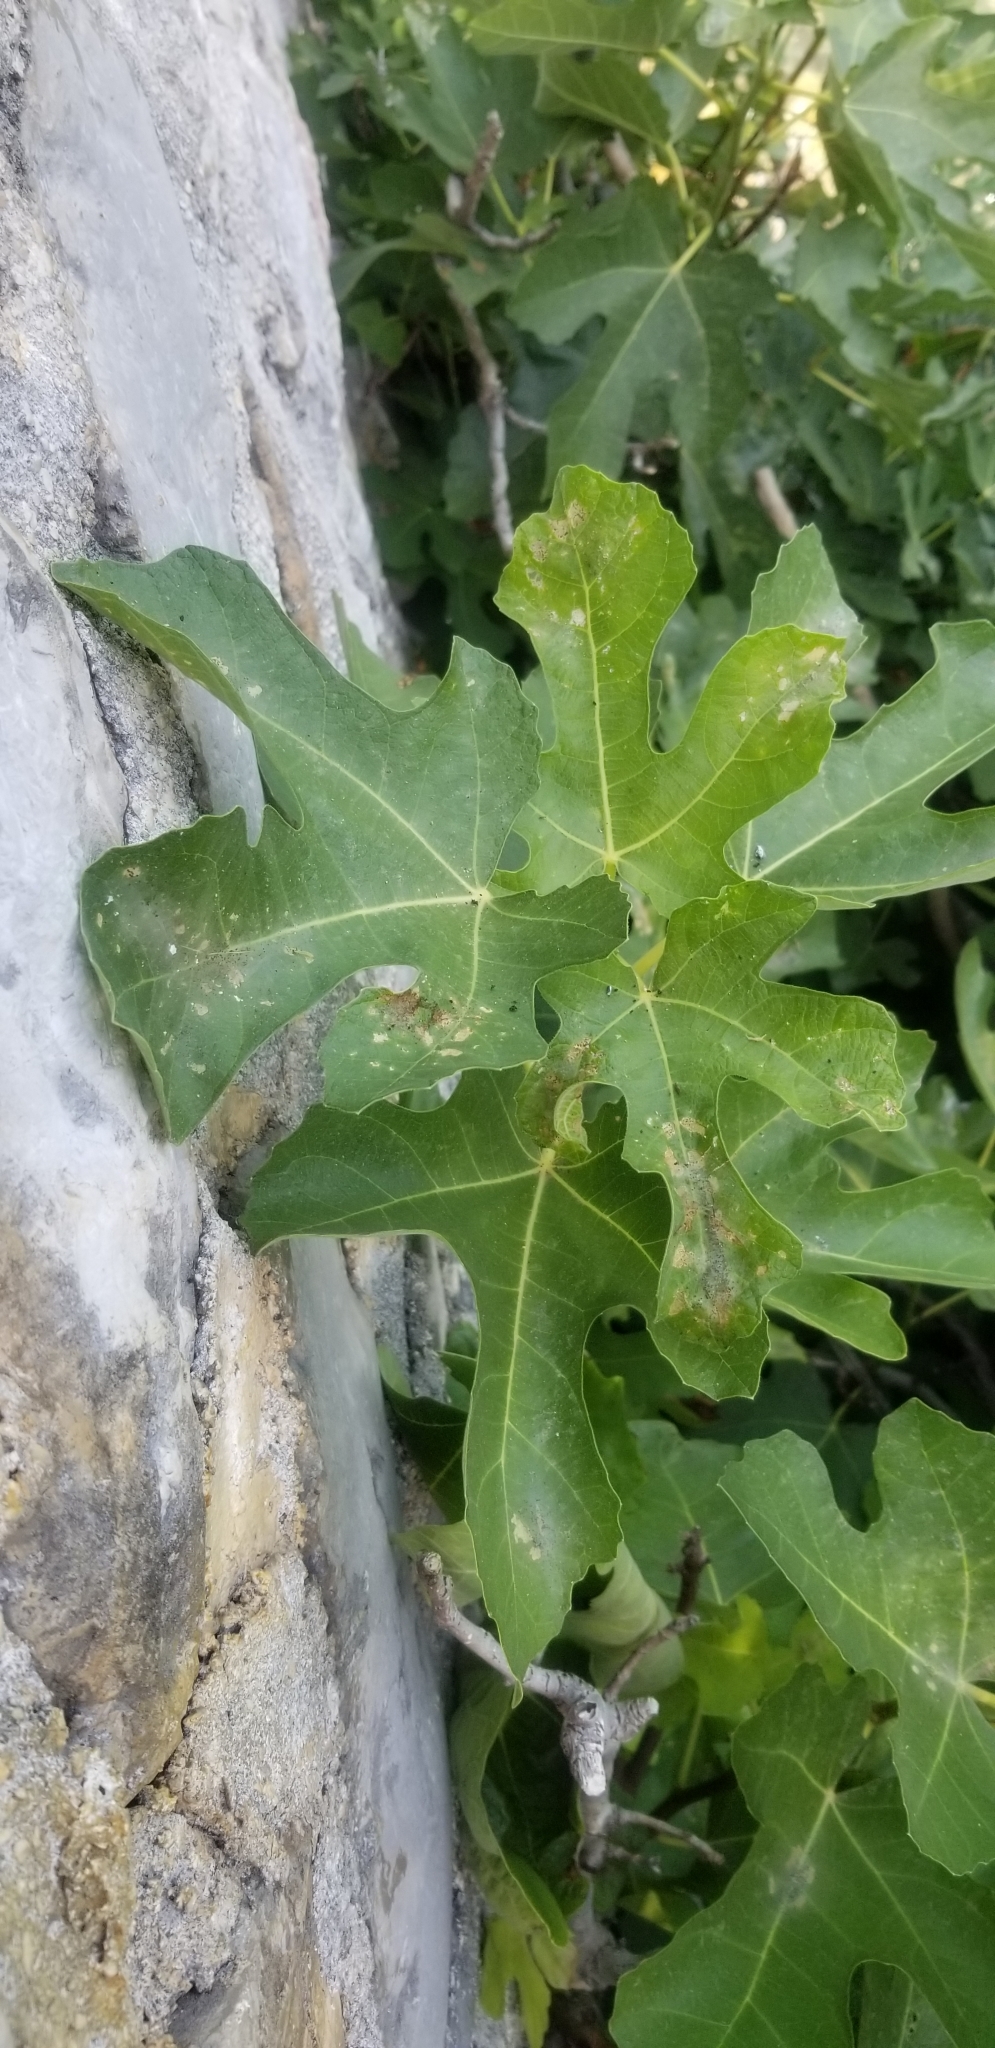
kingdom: Plantae
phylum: Tracheophyta
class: Magnoliopsida
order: Rosales
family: Moraceae
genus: Ficus
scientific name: Ficus carica
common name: Fig
